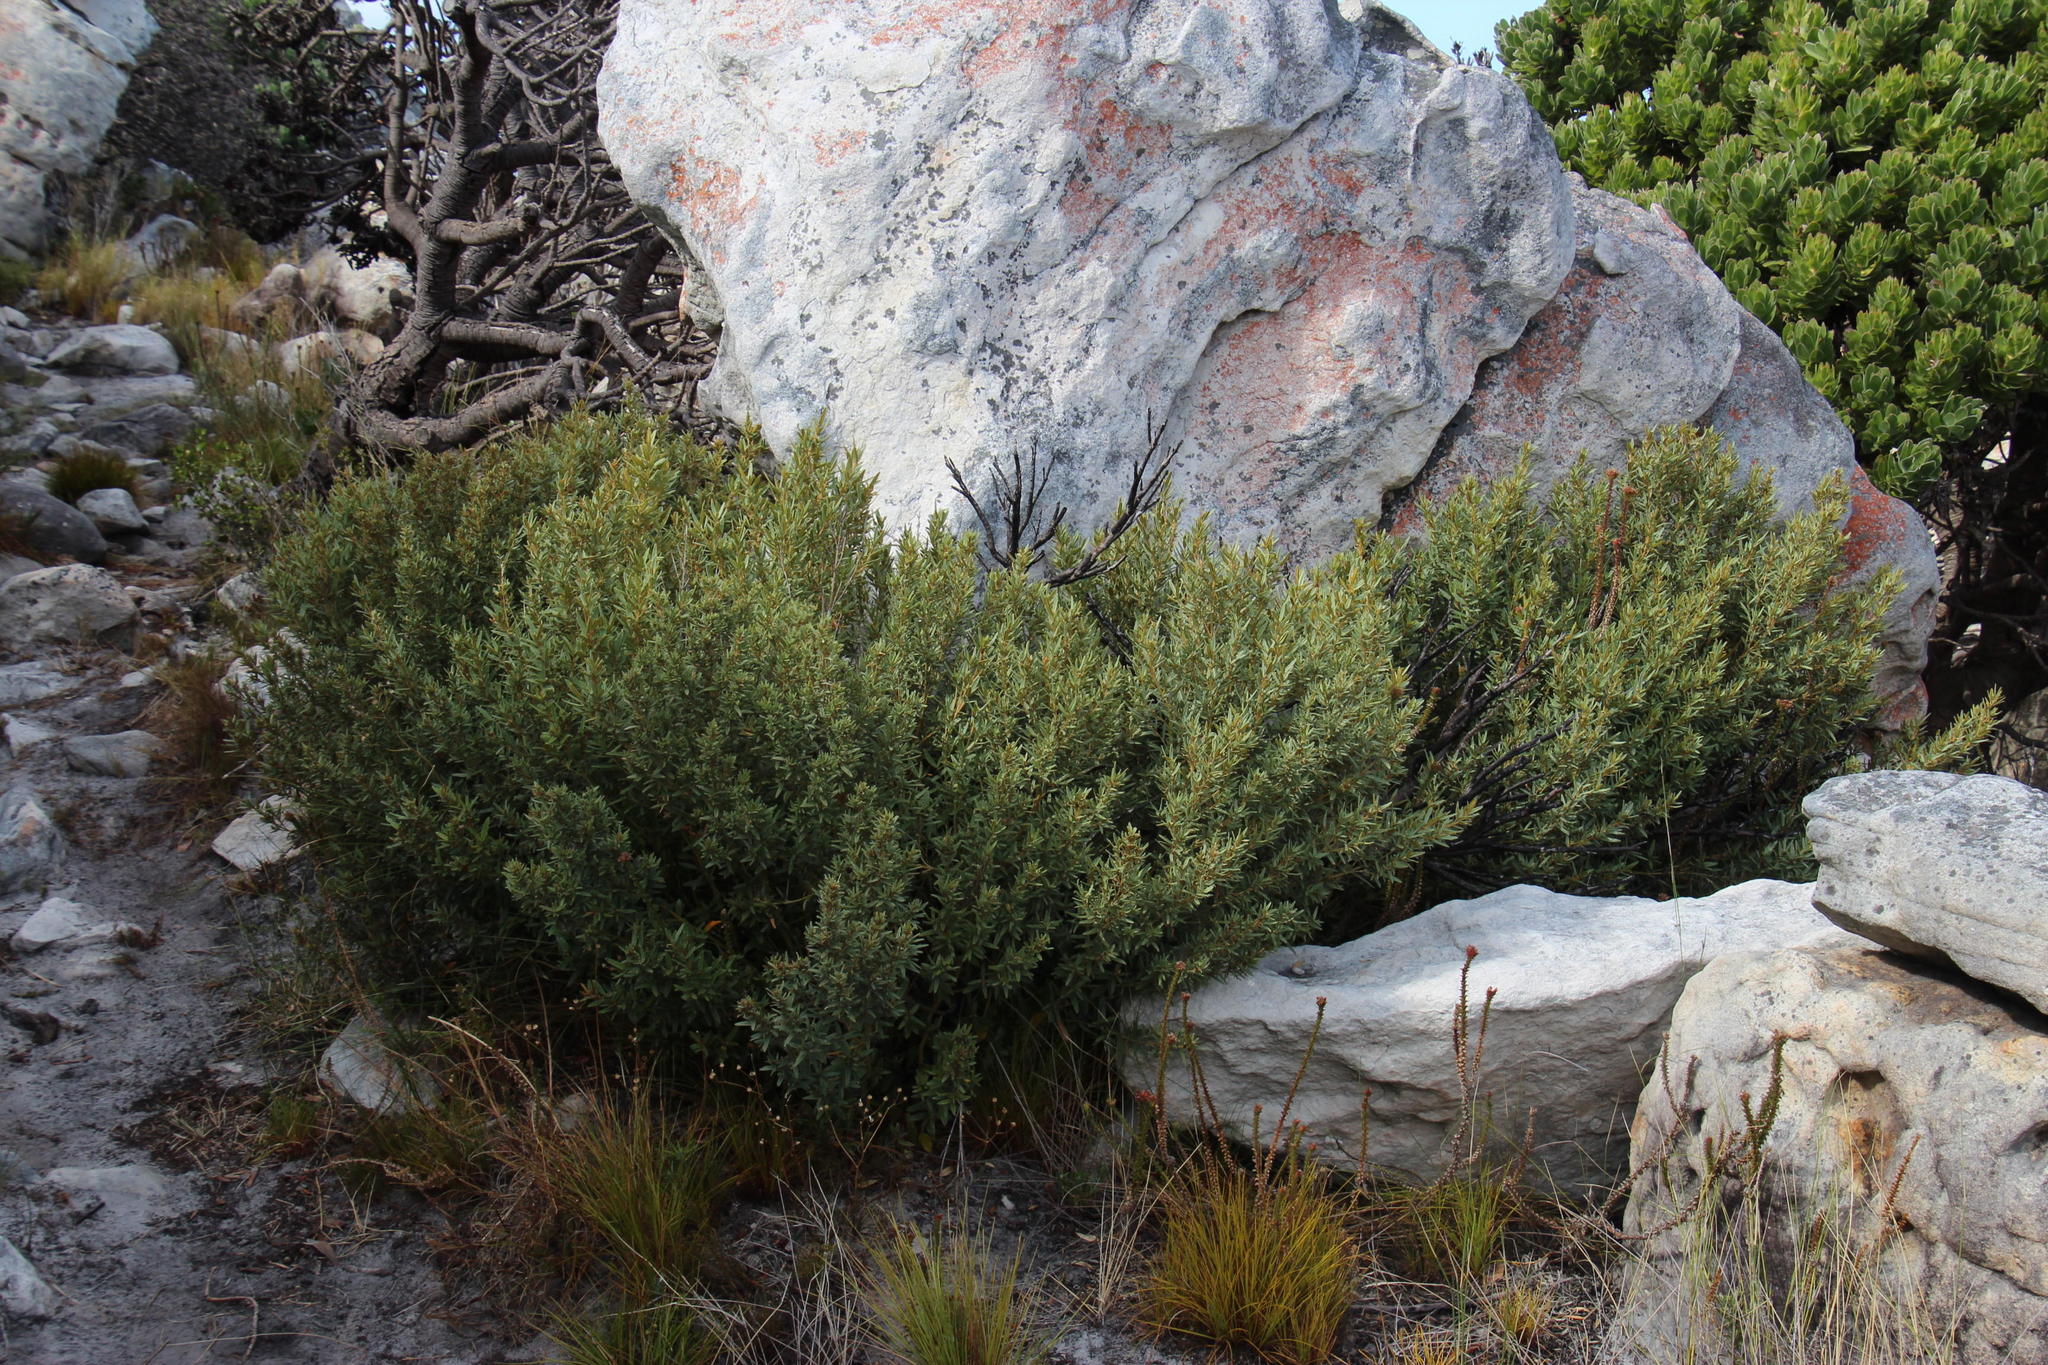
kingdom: Plantae
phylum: Tracheophyta
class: Magnoliopsida
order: Cornales
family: Grubbiaceae
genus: Grubbia
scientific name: Grubbia tomentosa
